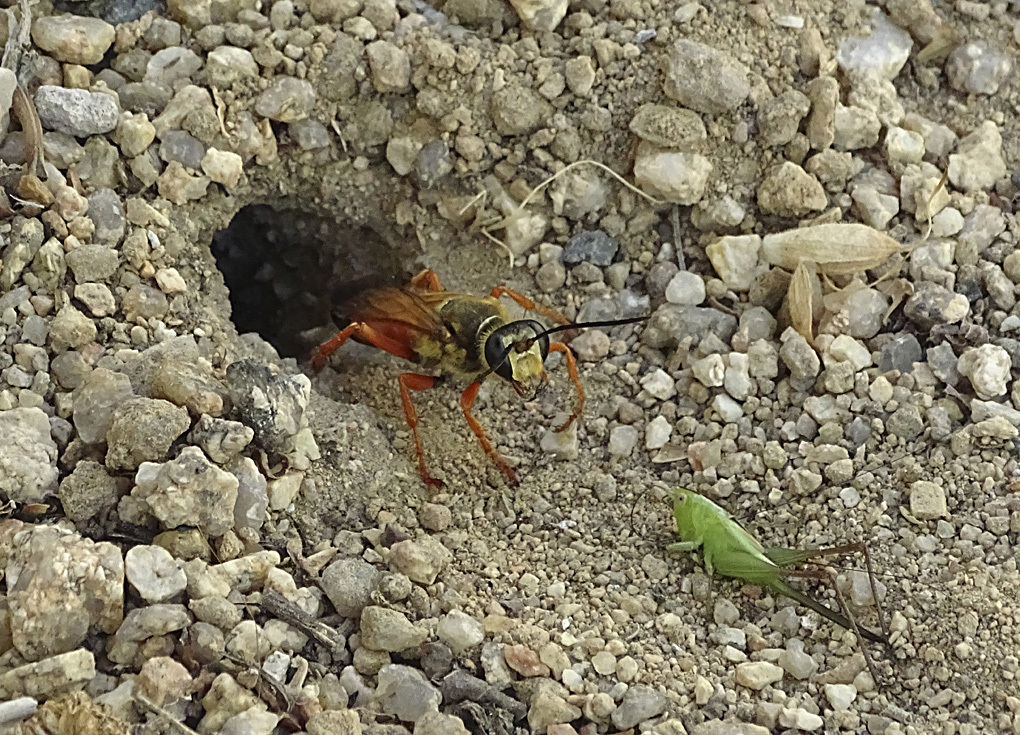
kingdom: Animalia
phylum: Arthropoda
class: Insecta
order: Hymenoptera
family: Sphecidae
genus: Sphex
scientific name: Sphex ichneumoneus
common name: Great golden digger wasp
